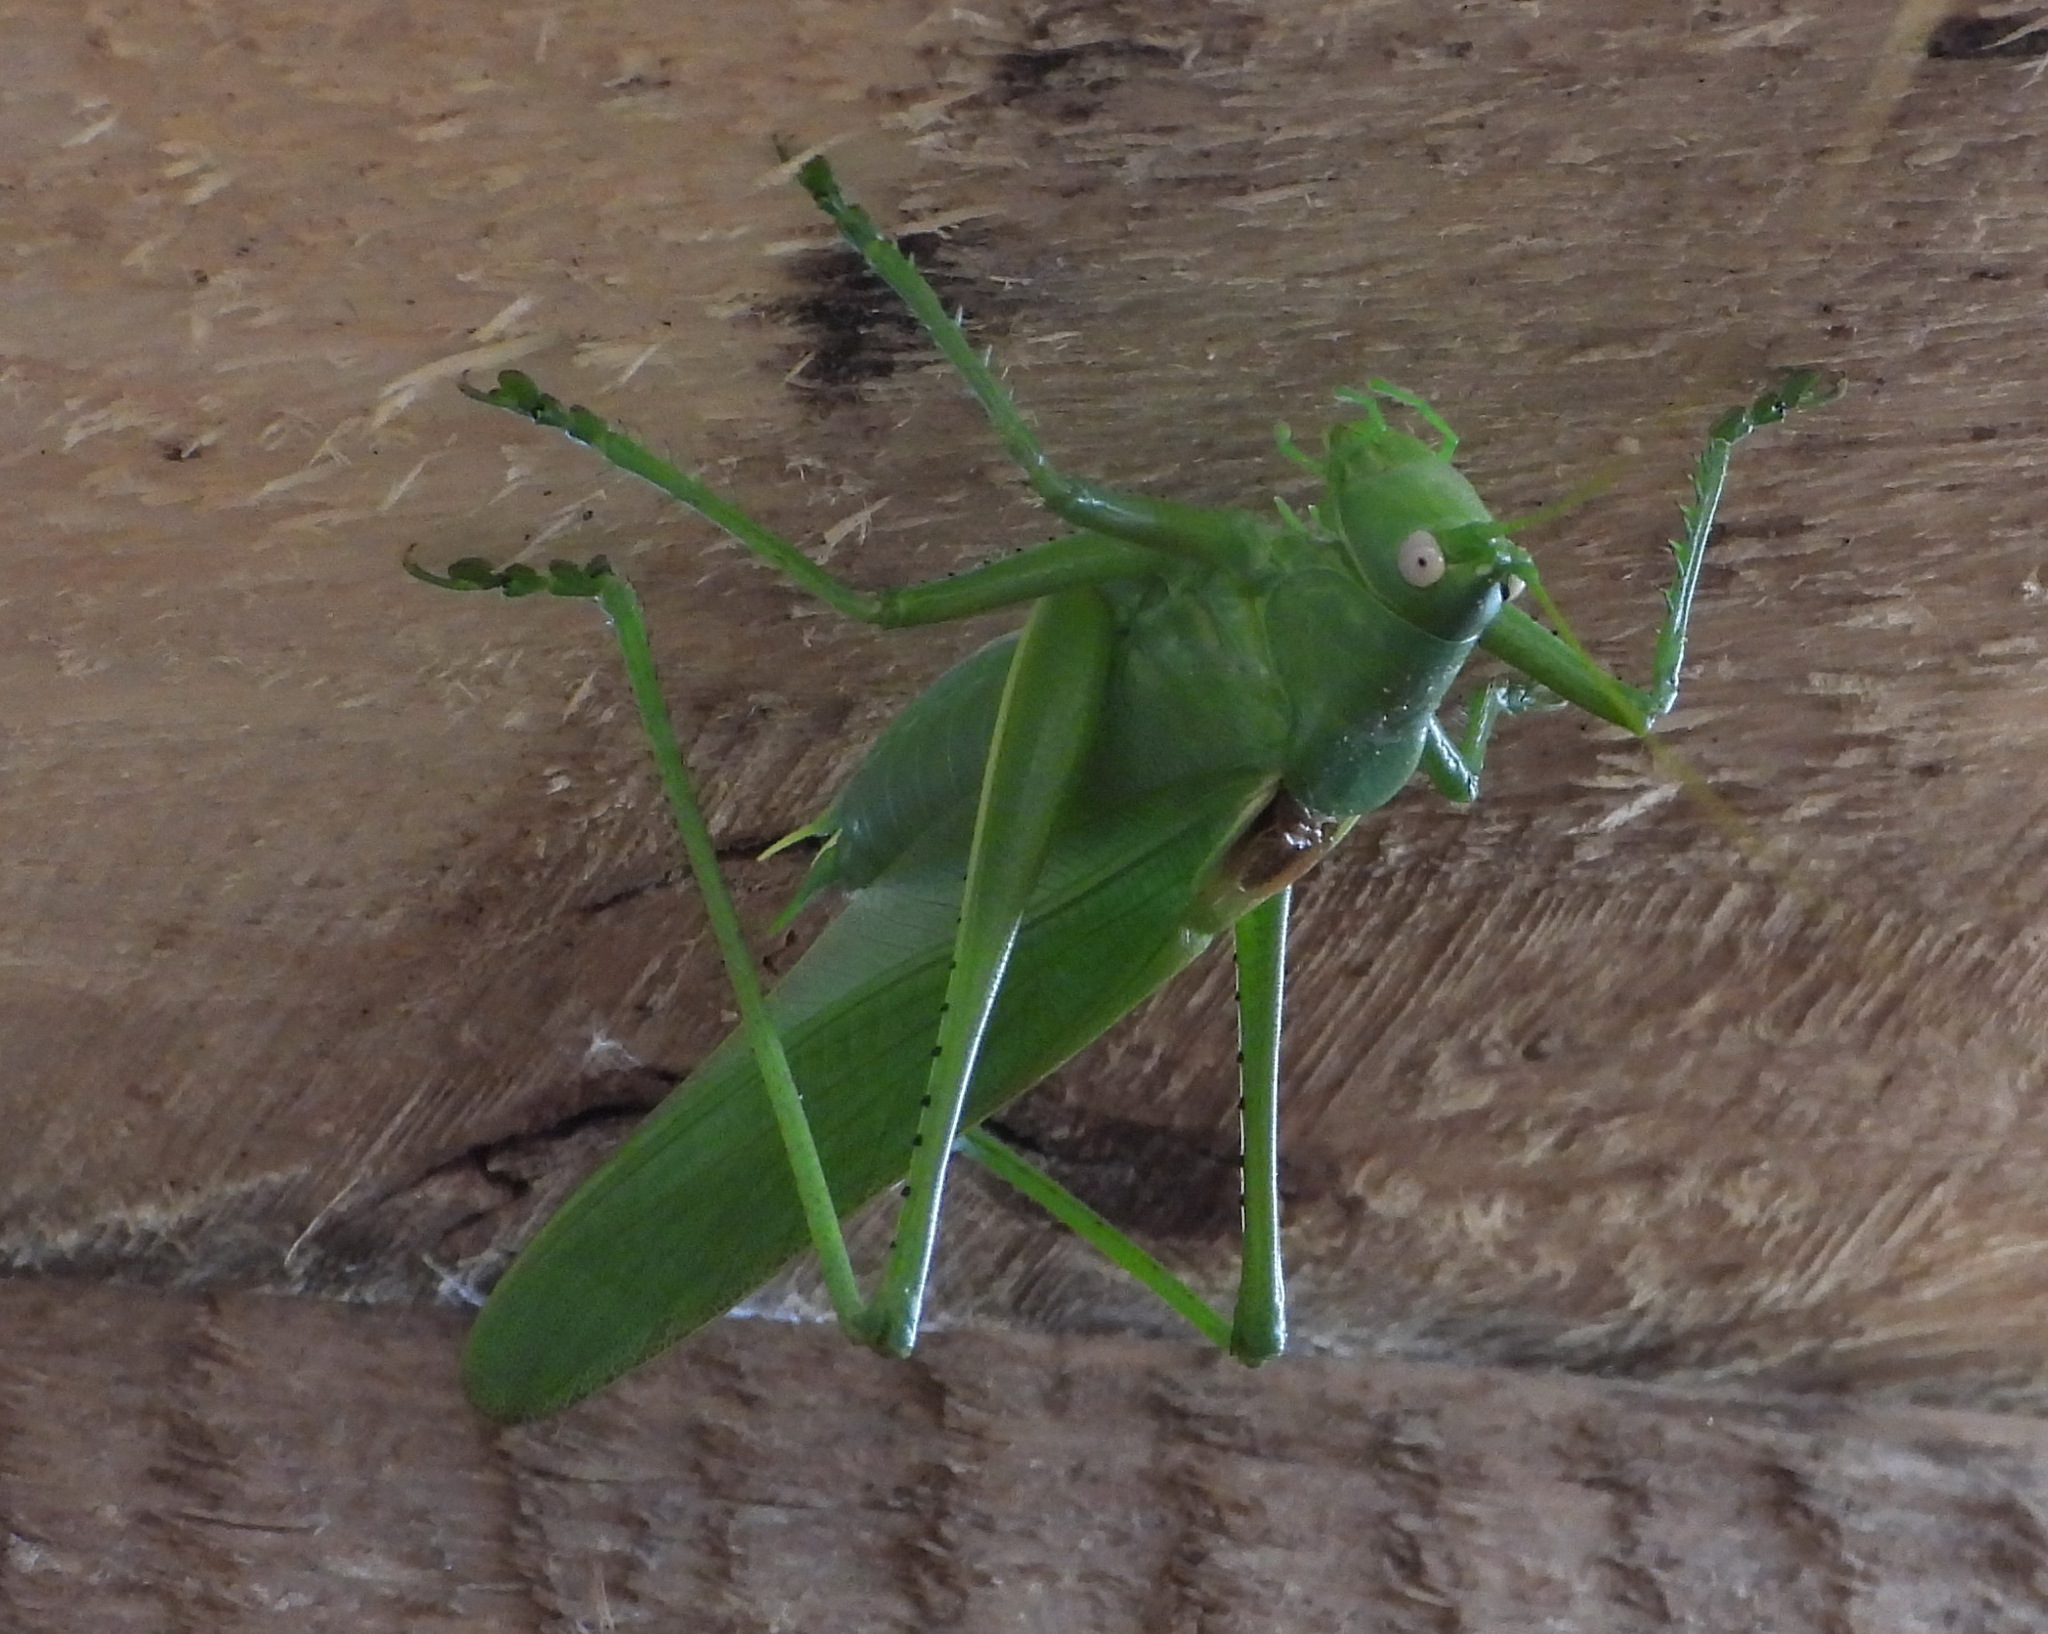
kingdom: Animalia
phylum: Arthropoda
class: Insecta
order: Orthoptera
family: Tettigoniidae
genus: Tettigonia
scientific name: Tettigonia caudata
